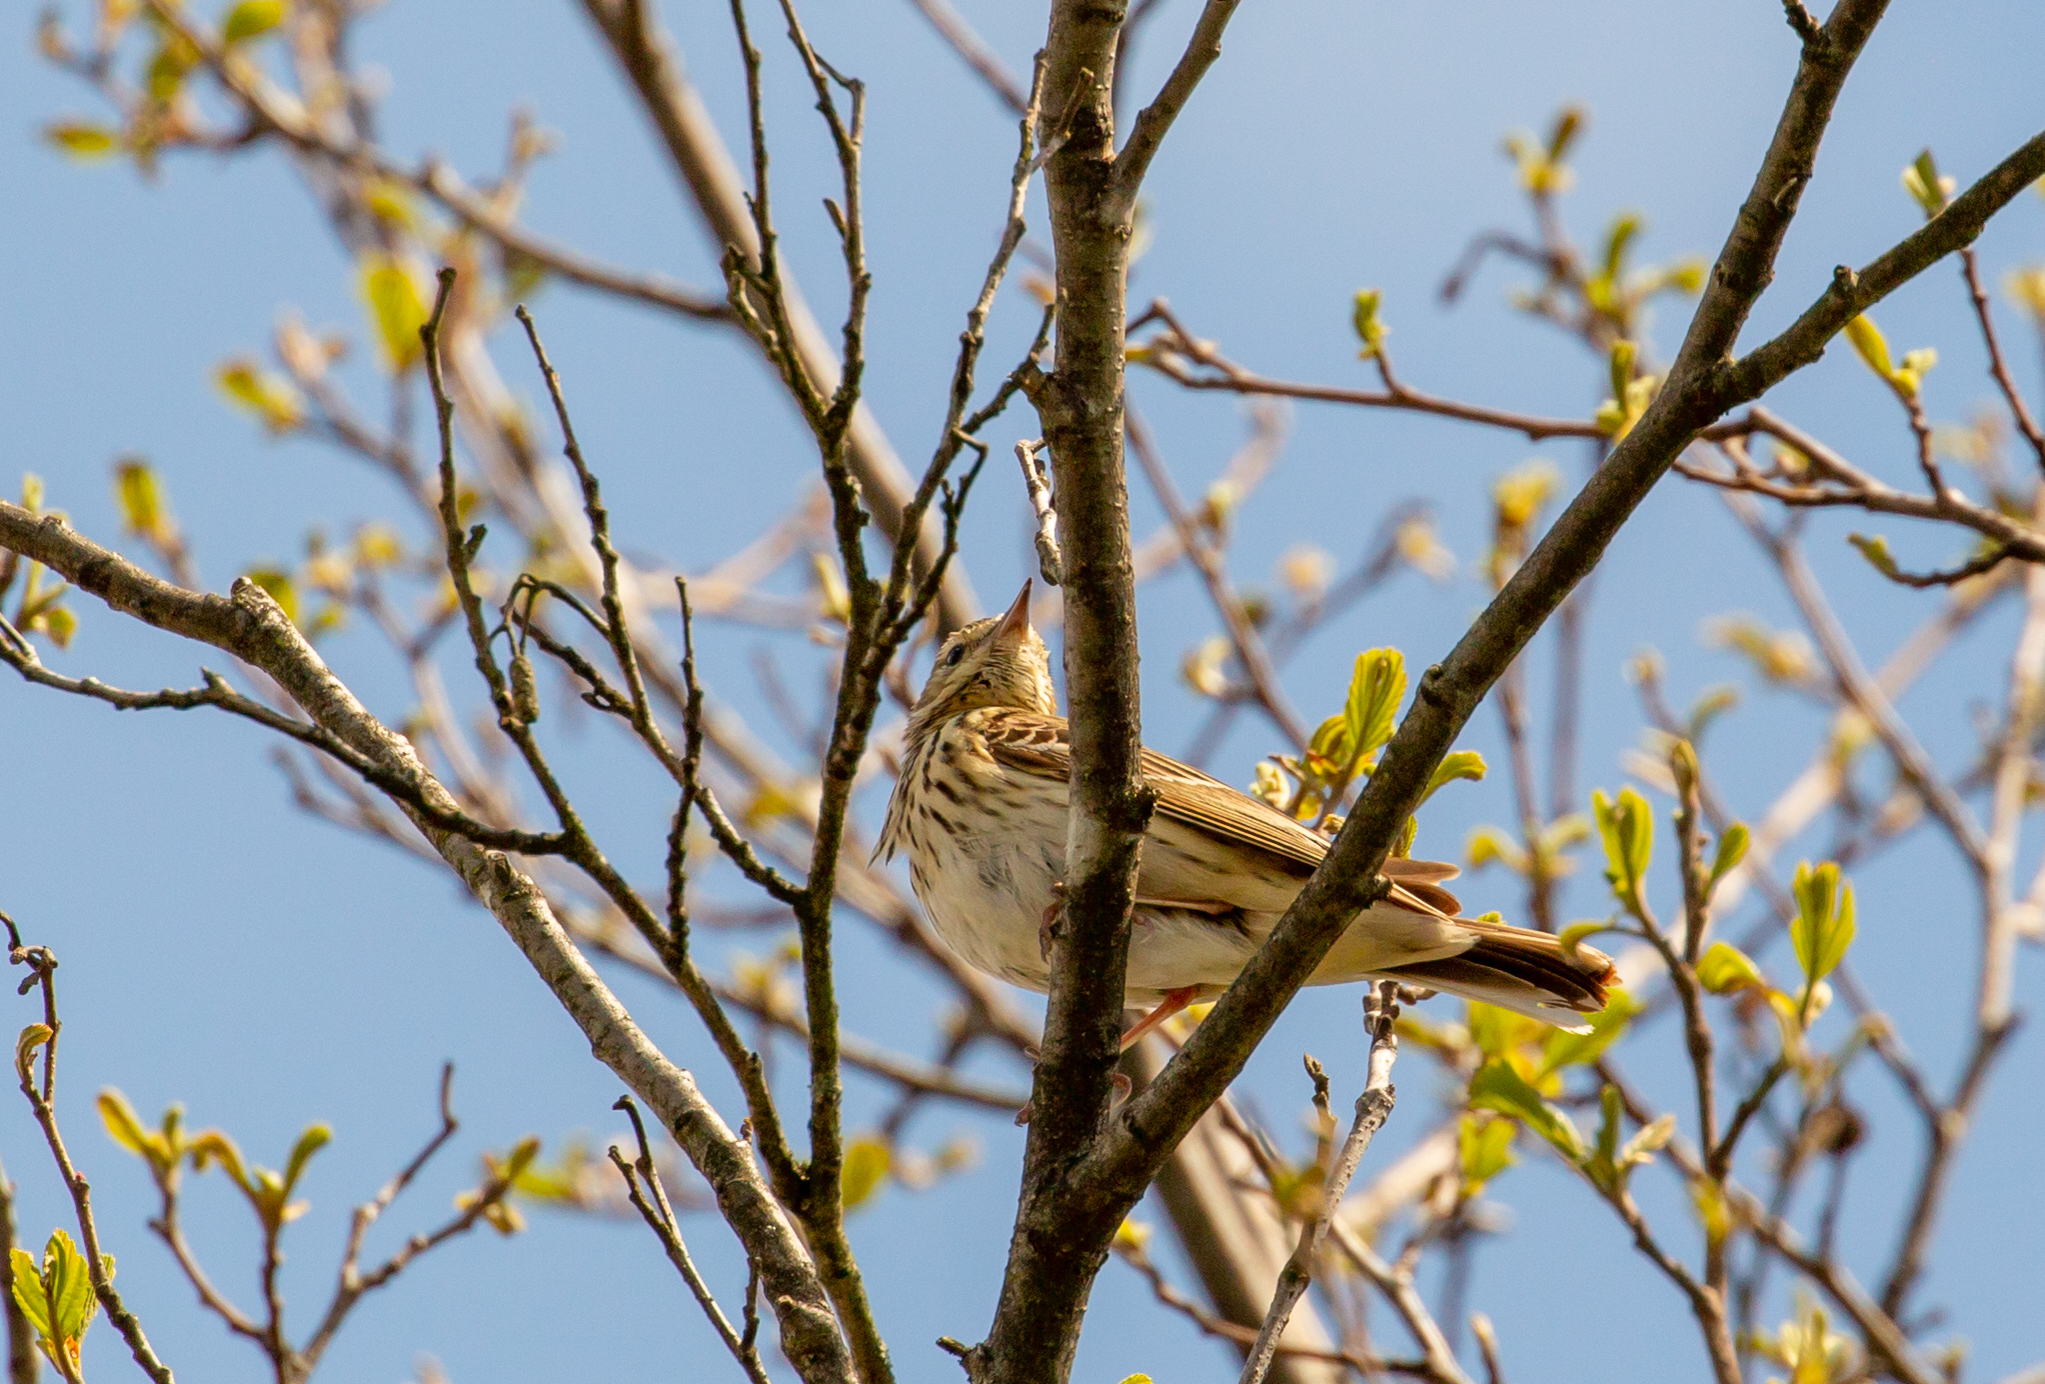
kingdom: Animalia
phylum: Chordata
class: Aves
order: Passeriformes
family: Motacillidae
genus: Anthus
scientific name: Anthus trivialis
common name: Tree pipit
